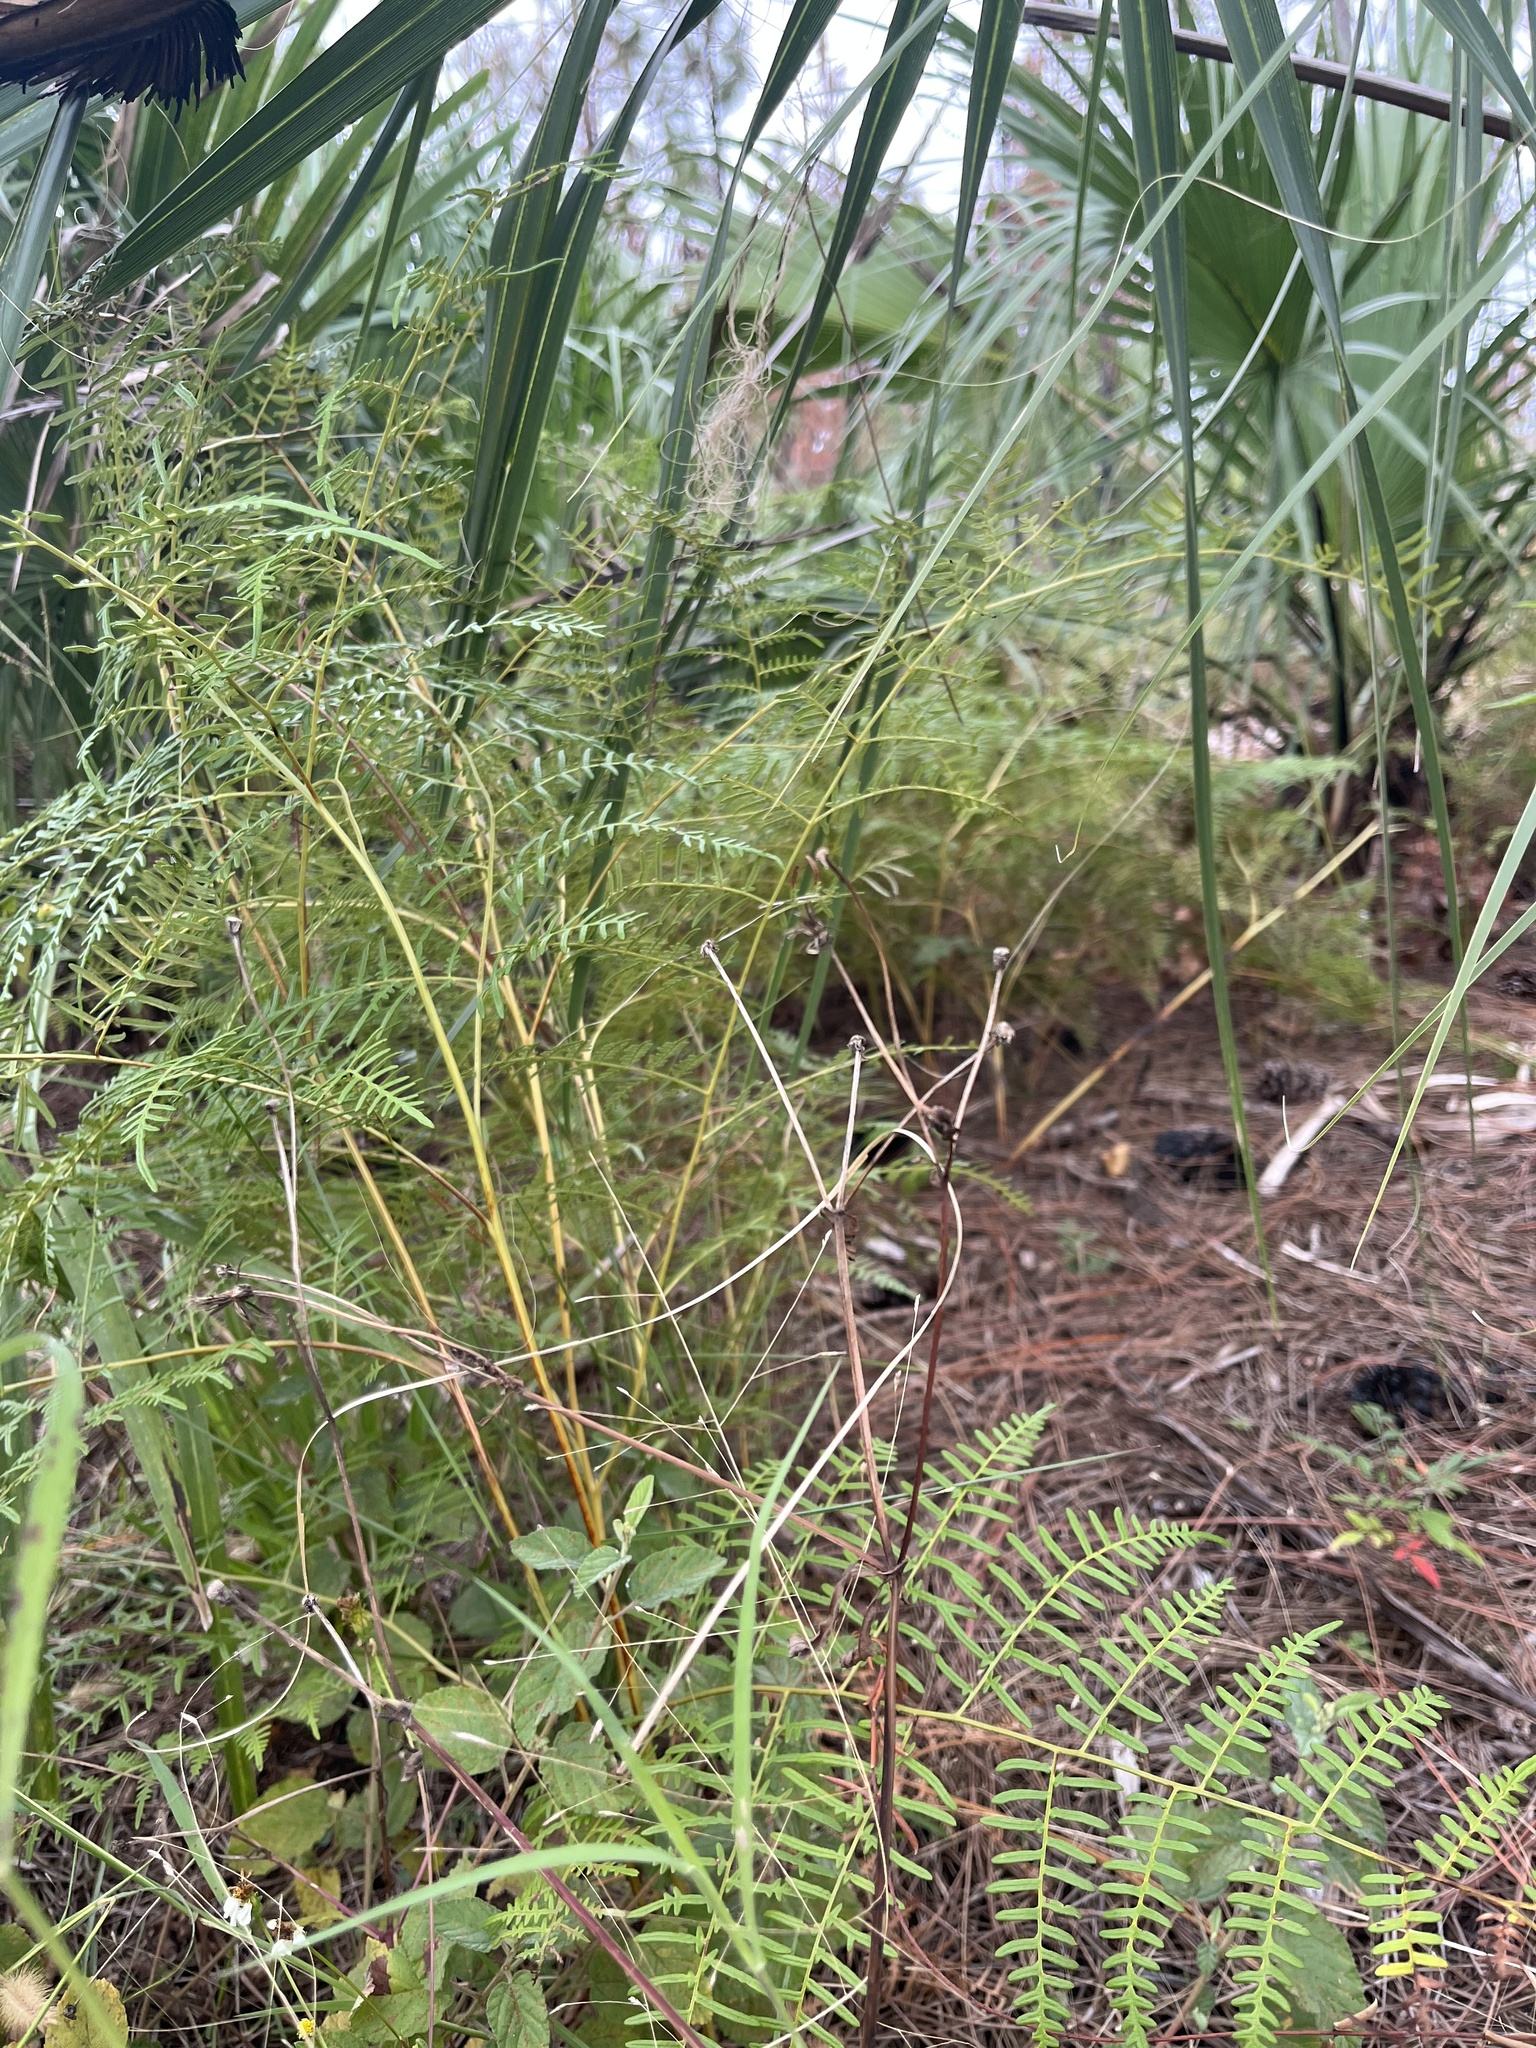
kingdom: Plantae
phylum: Tracheophyta
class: Polypodiopsida
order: Polypodiales
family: Dennstaedtiaceae
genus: Pteridium
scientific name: Pteridium caudatum
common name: Southern bracken fern
